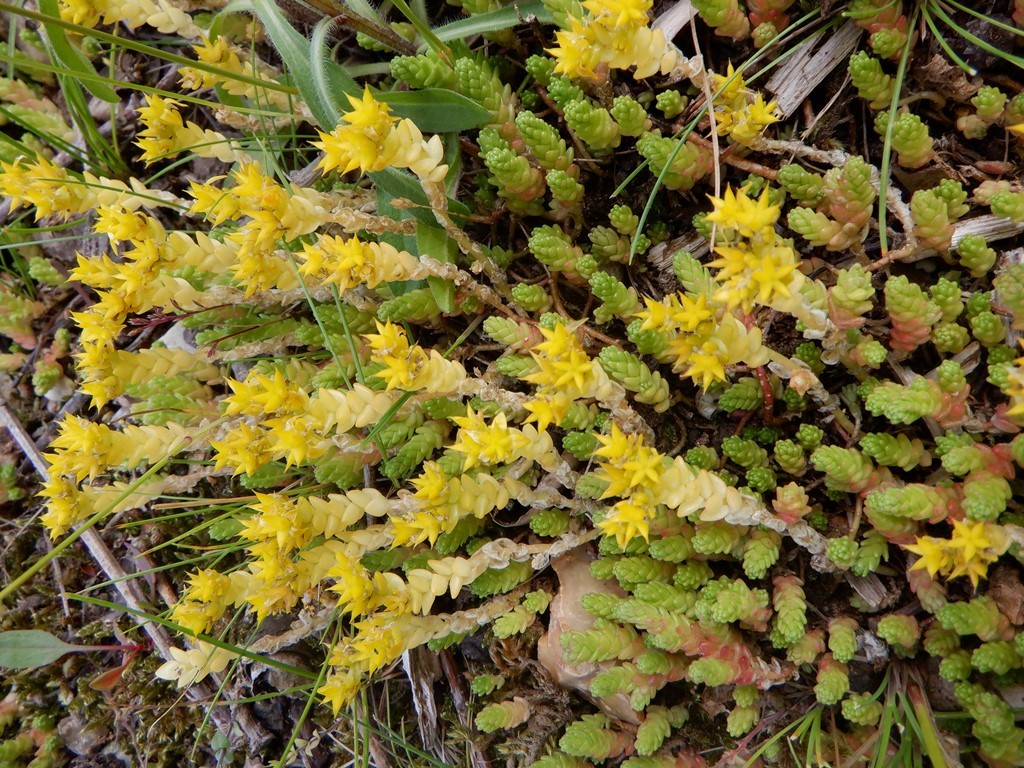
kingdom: Plantae
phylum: Tracheophyta
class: Magnoliopsida
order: Saxifragales
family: Crassulaceae
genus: Sedum
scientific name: Sedum acre
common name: Biting stonecrop
